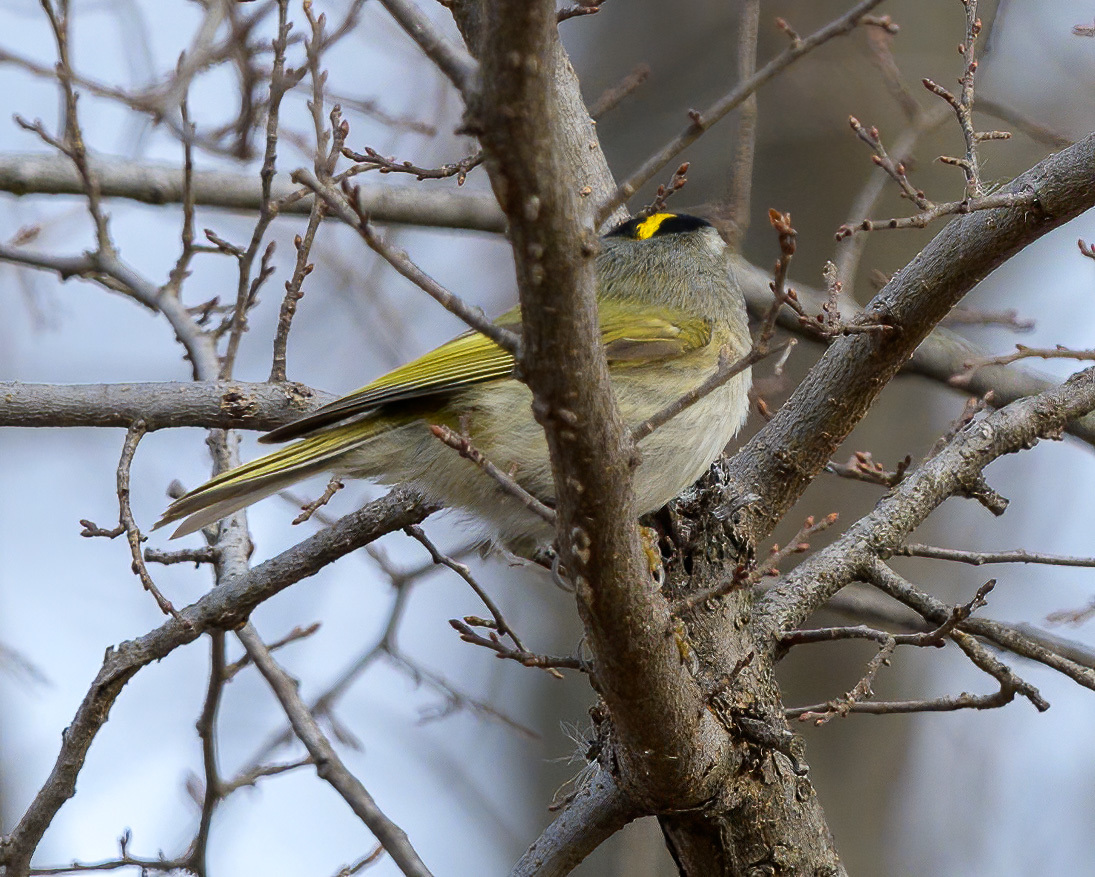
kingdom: Animalia
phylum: Chordata
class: Aves
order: Passeriformes
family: Regulidae
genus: Regulus
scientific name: Regulus satrapa
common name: Golden-crowned kinglet
